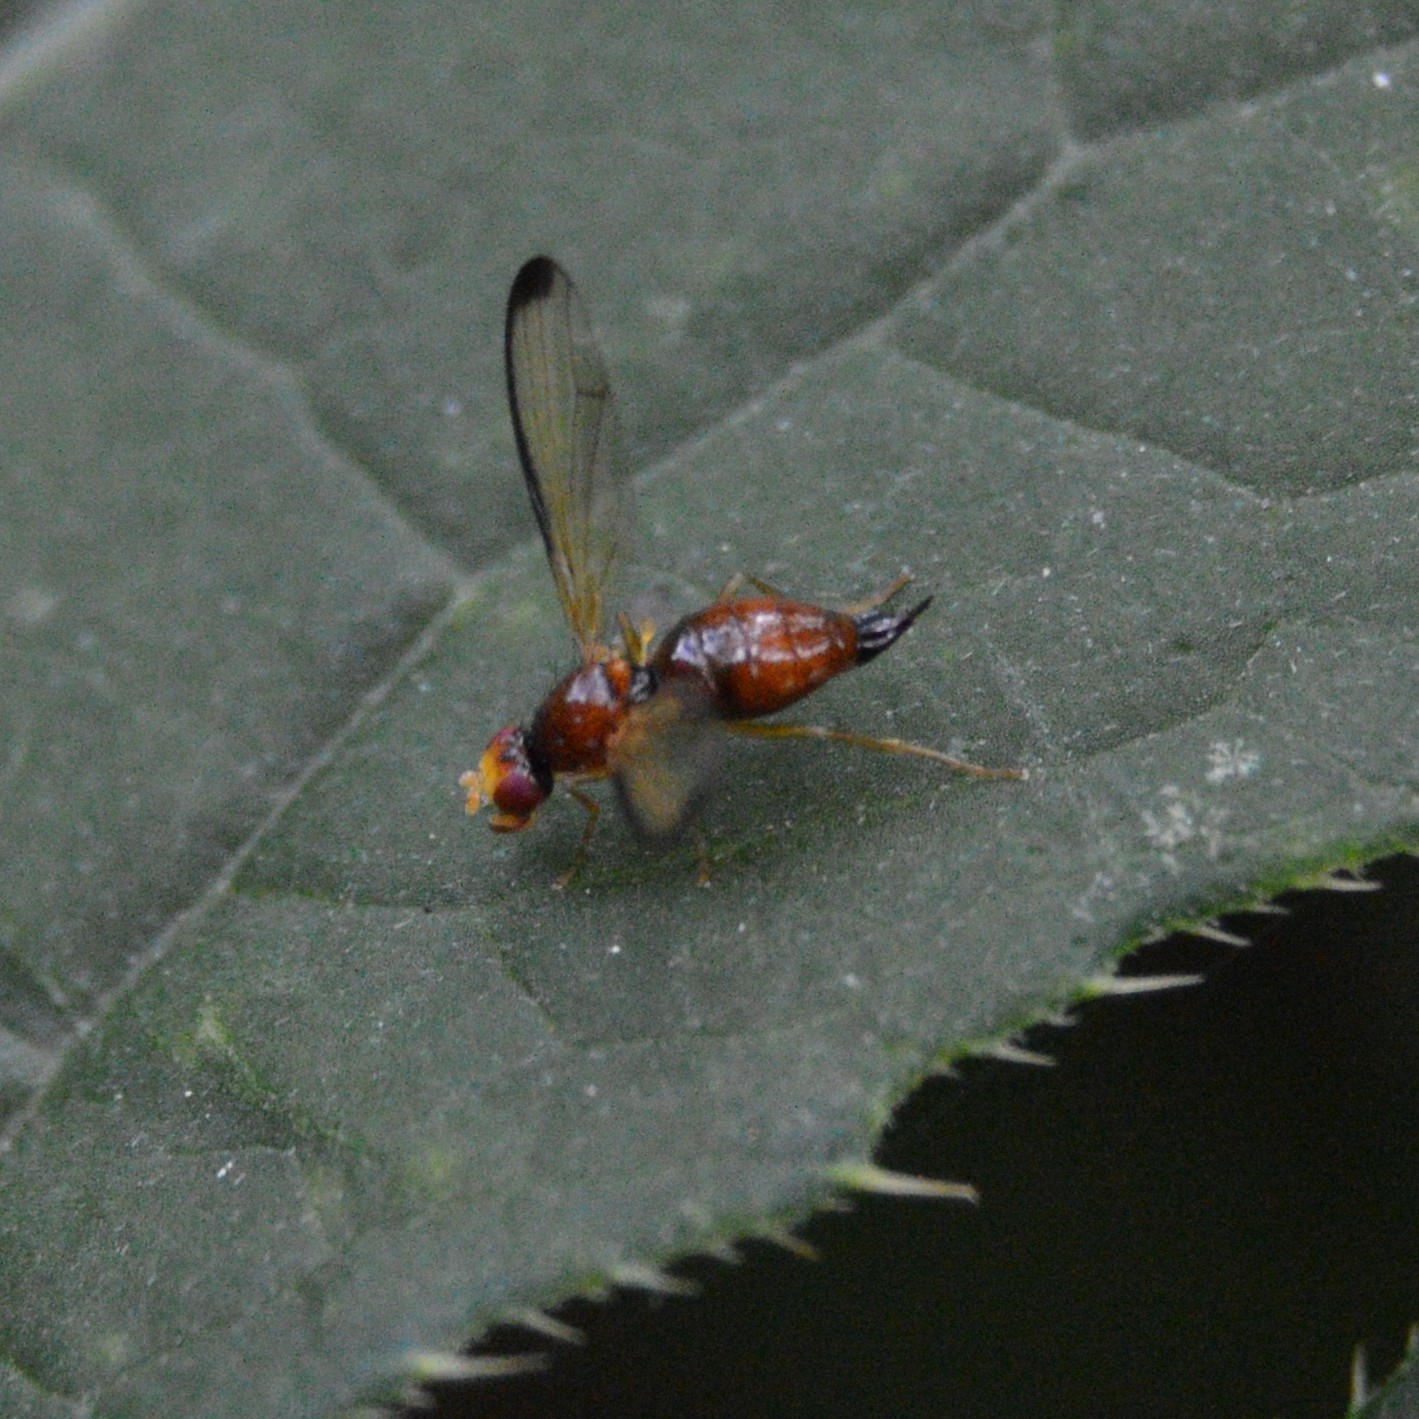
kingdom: Animalia
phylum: Arthropoda
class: Insecta
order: Diptera
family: Pallopteridae
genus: Palloptera
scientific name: Palloptera saltuum
